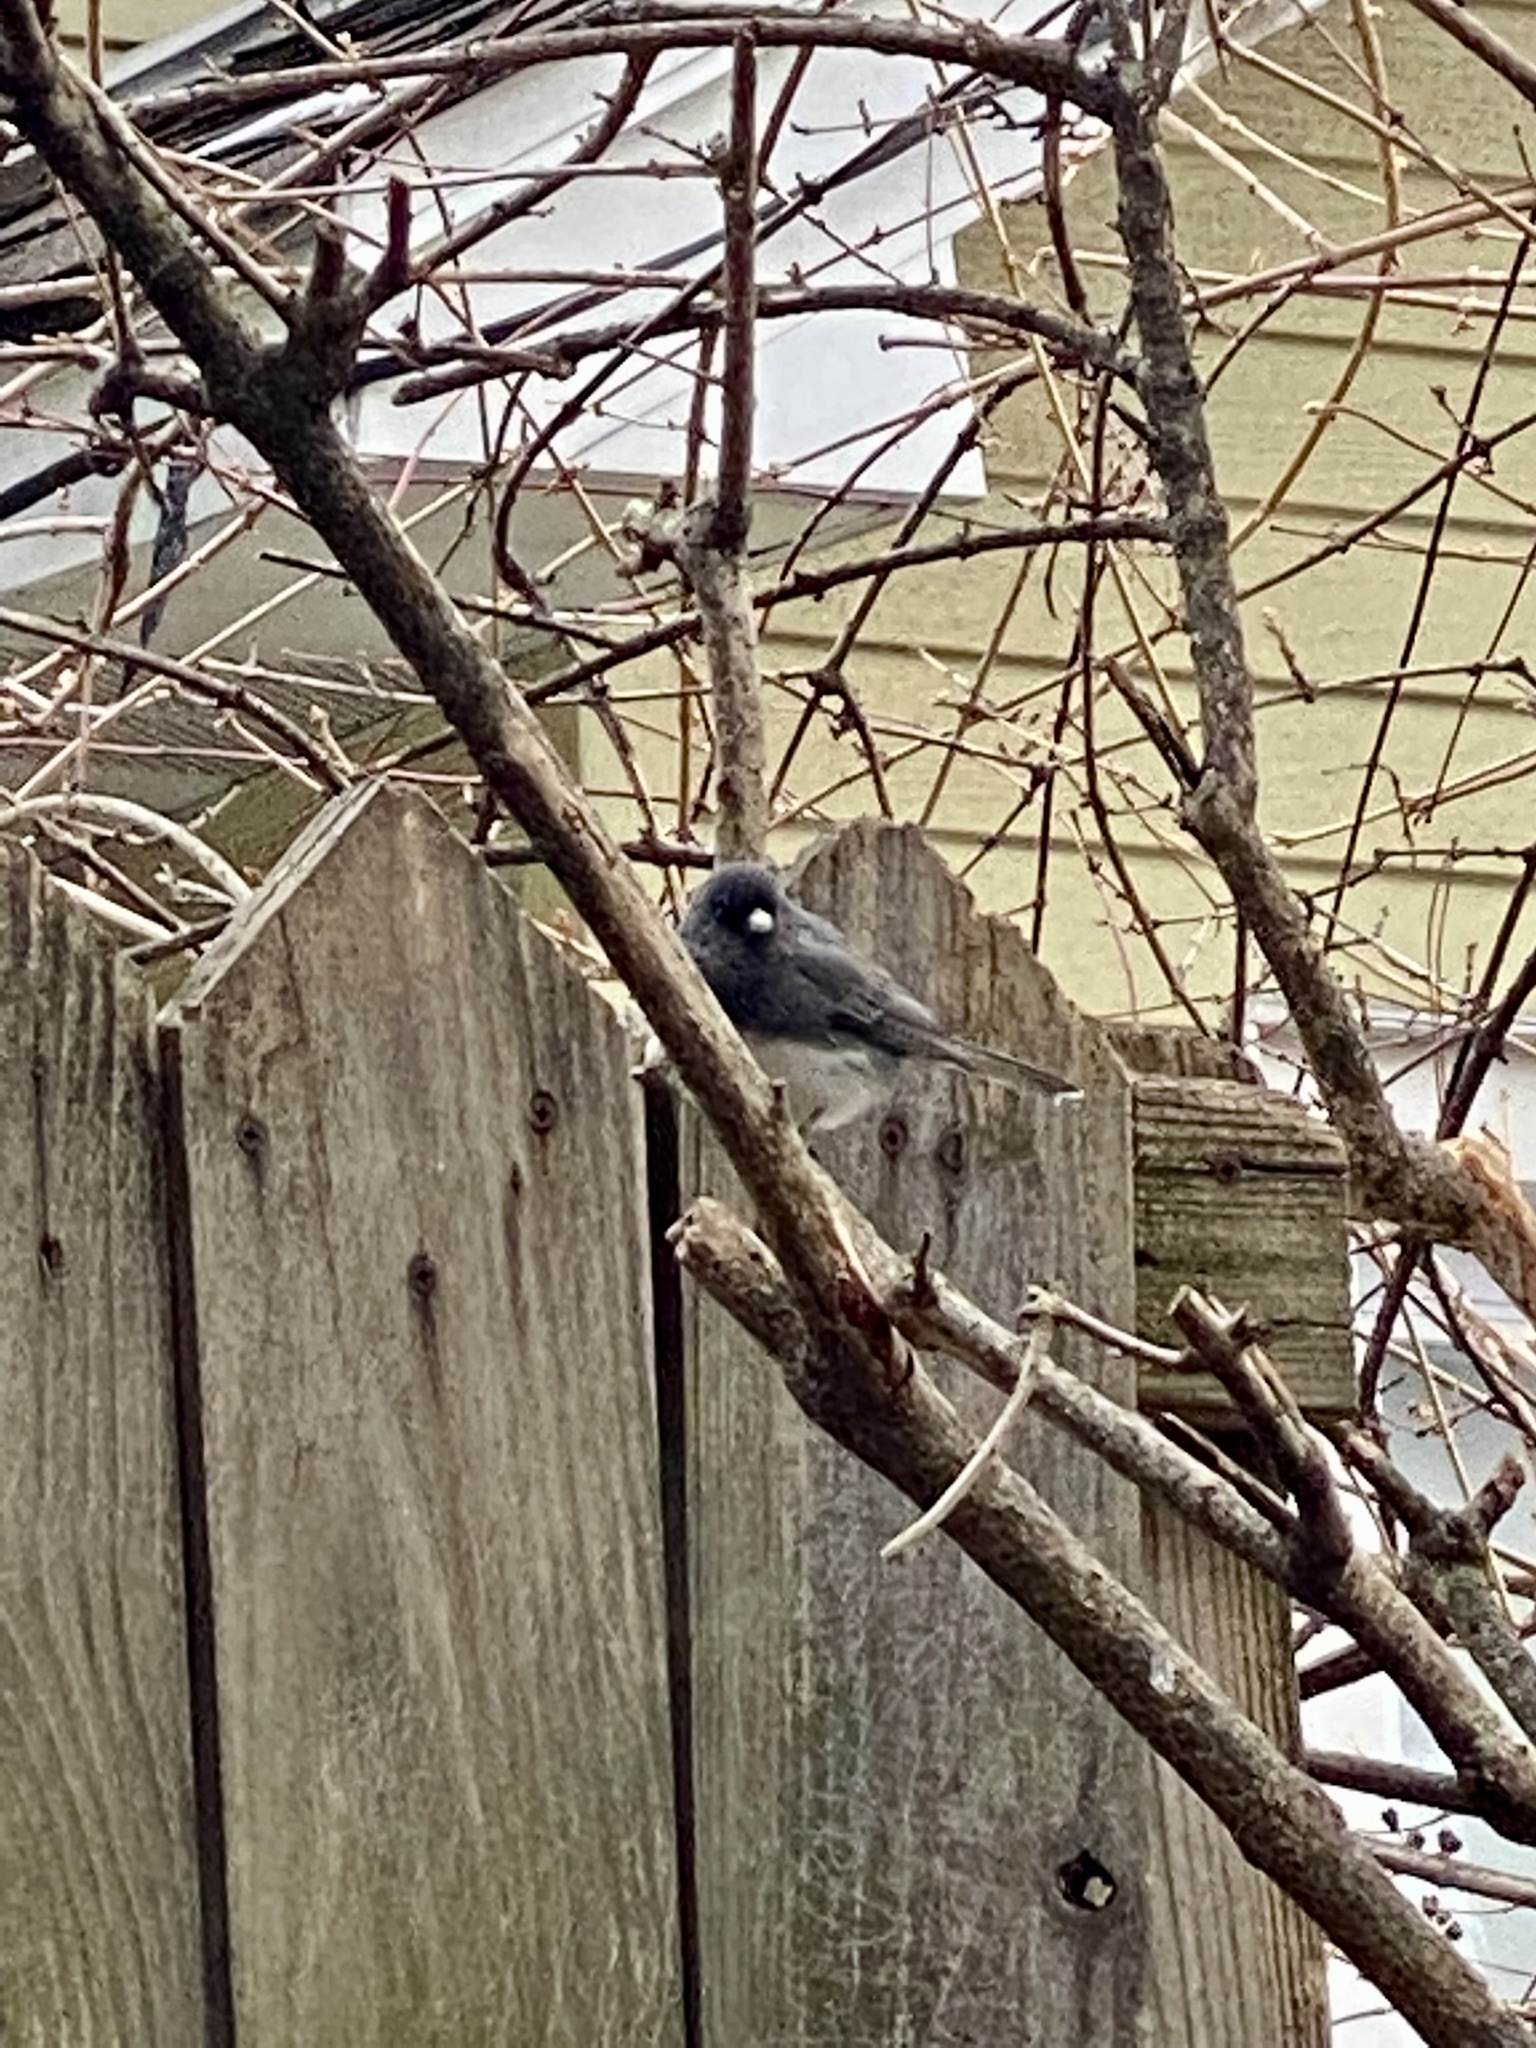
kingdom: Animalia
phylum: Chordata
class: Aves
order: Passeriformes
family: Passerellidae
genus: Junco
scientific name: Junco hyemalis
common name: Dark-eyed junco
